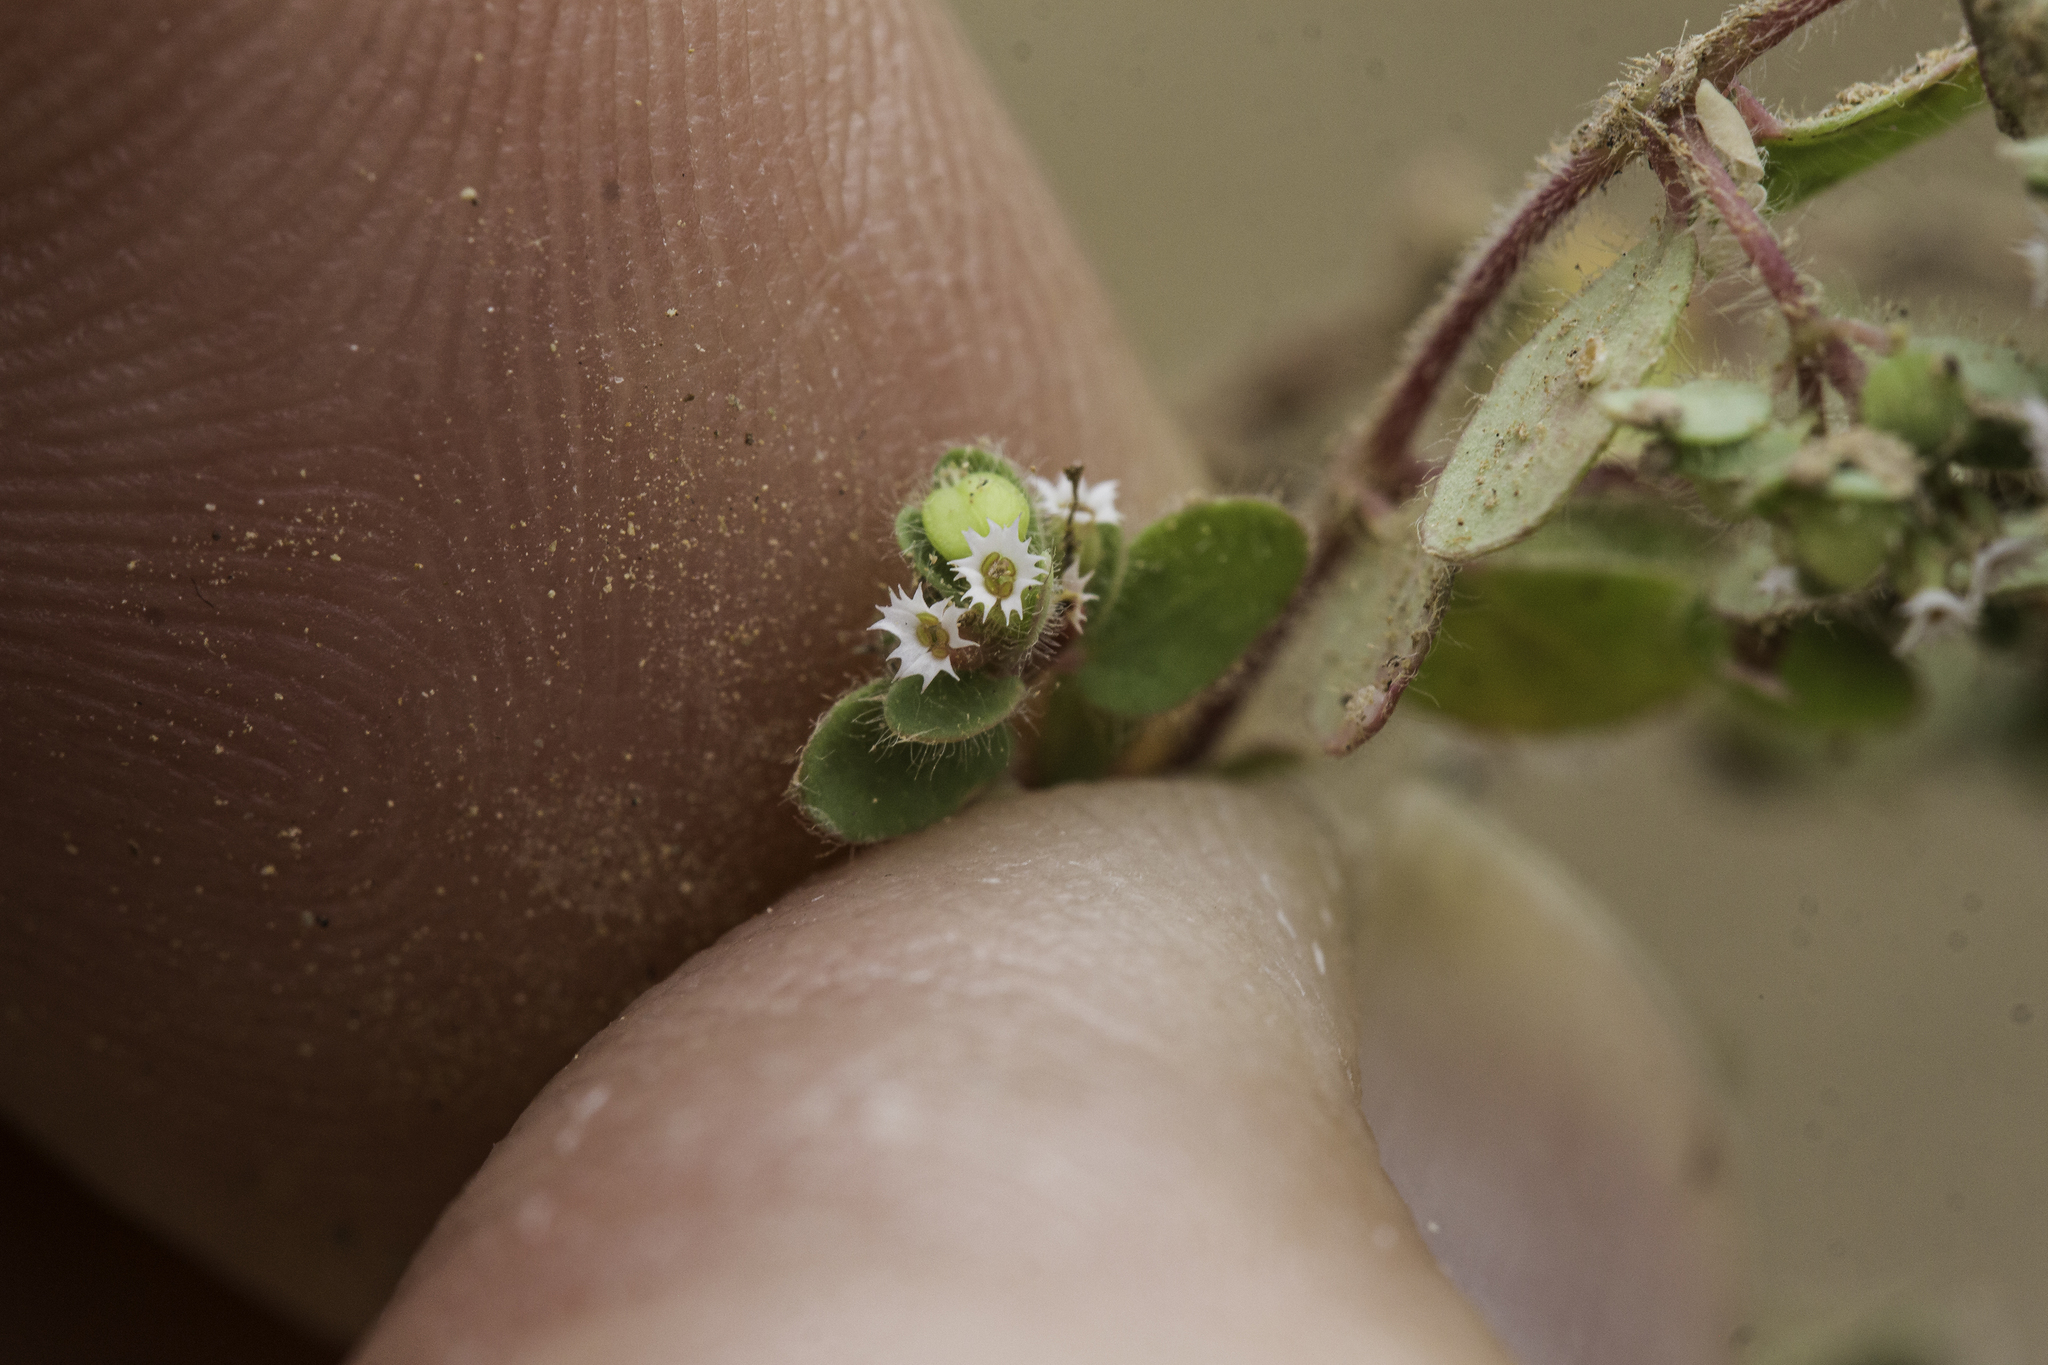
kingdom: Plantae
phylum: Tracheophyta
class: Magnoliopsida
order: Malpighiales
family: Euphorbiaceae
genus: Euphorbia
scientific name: Euphorbia setiloba
